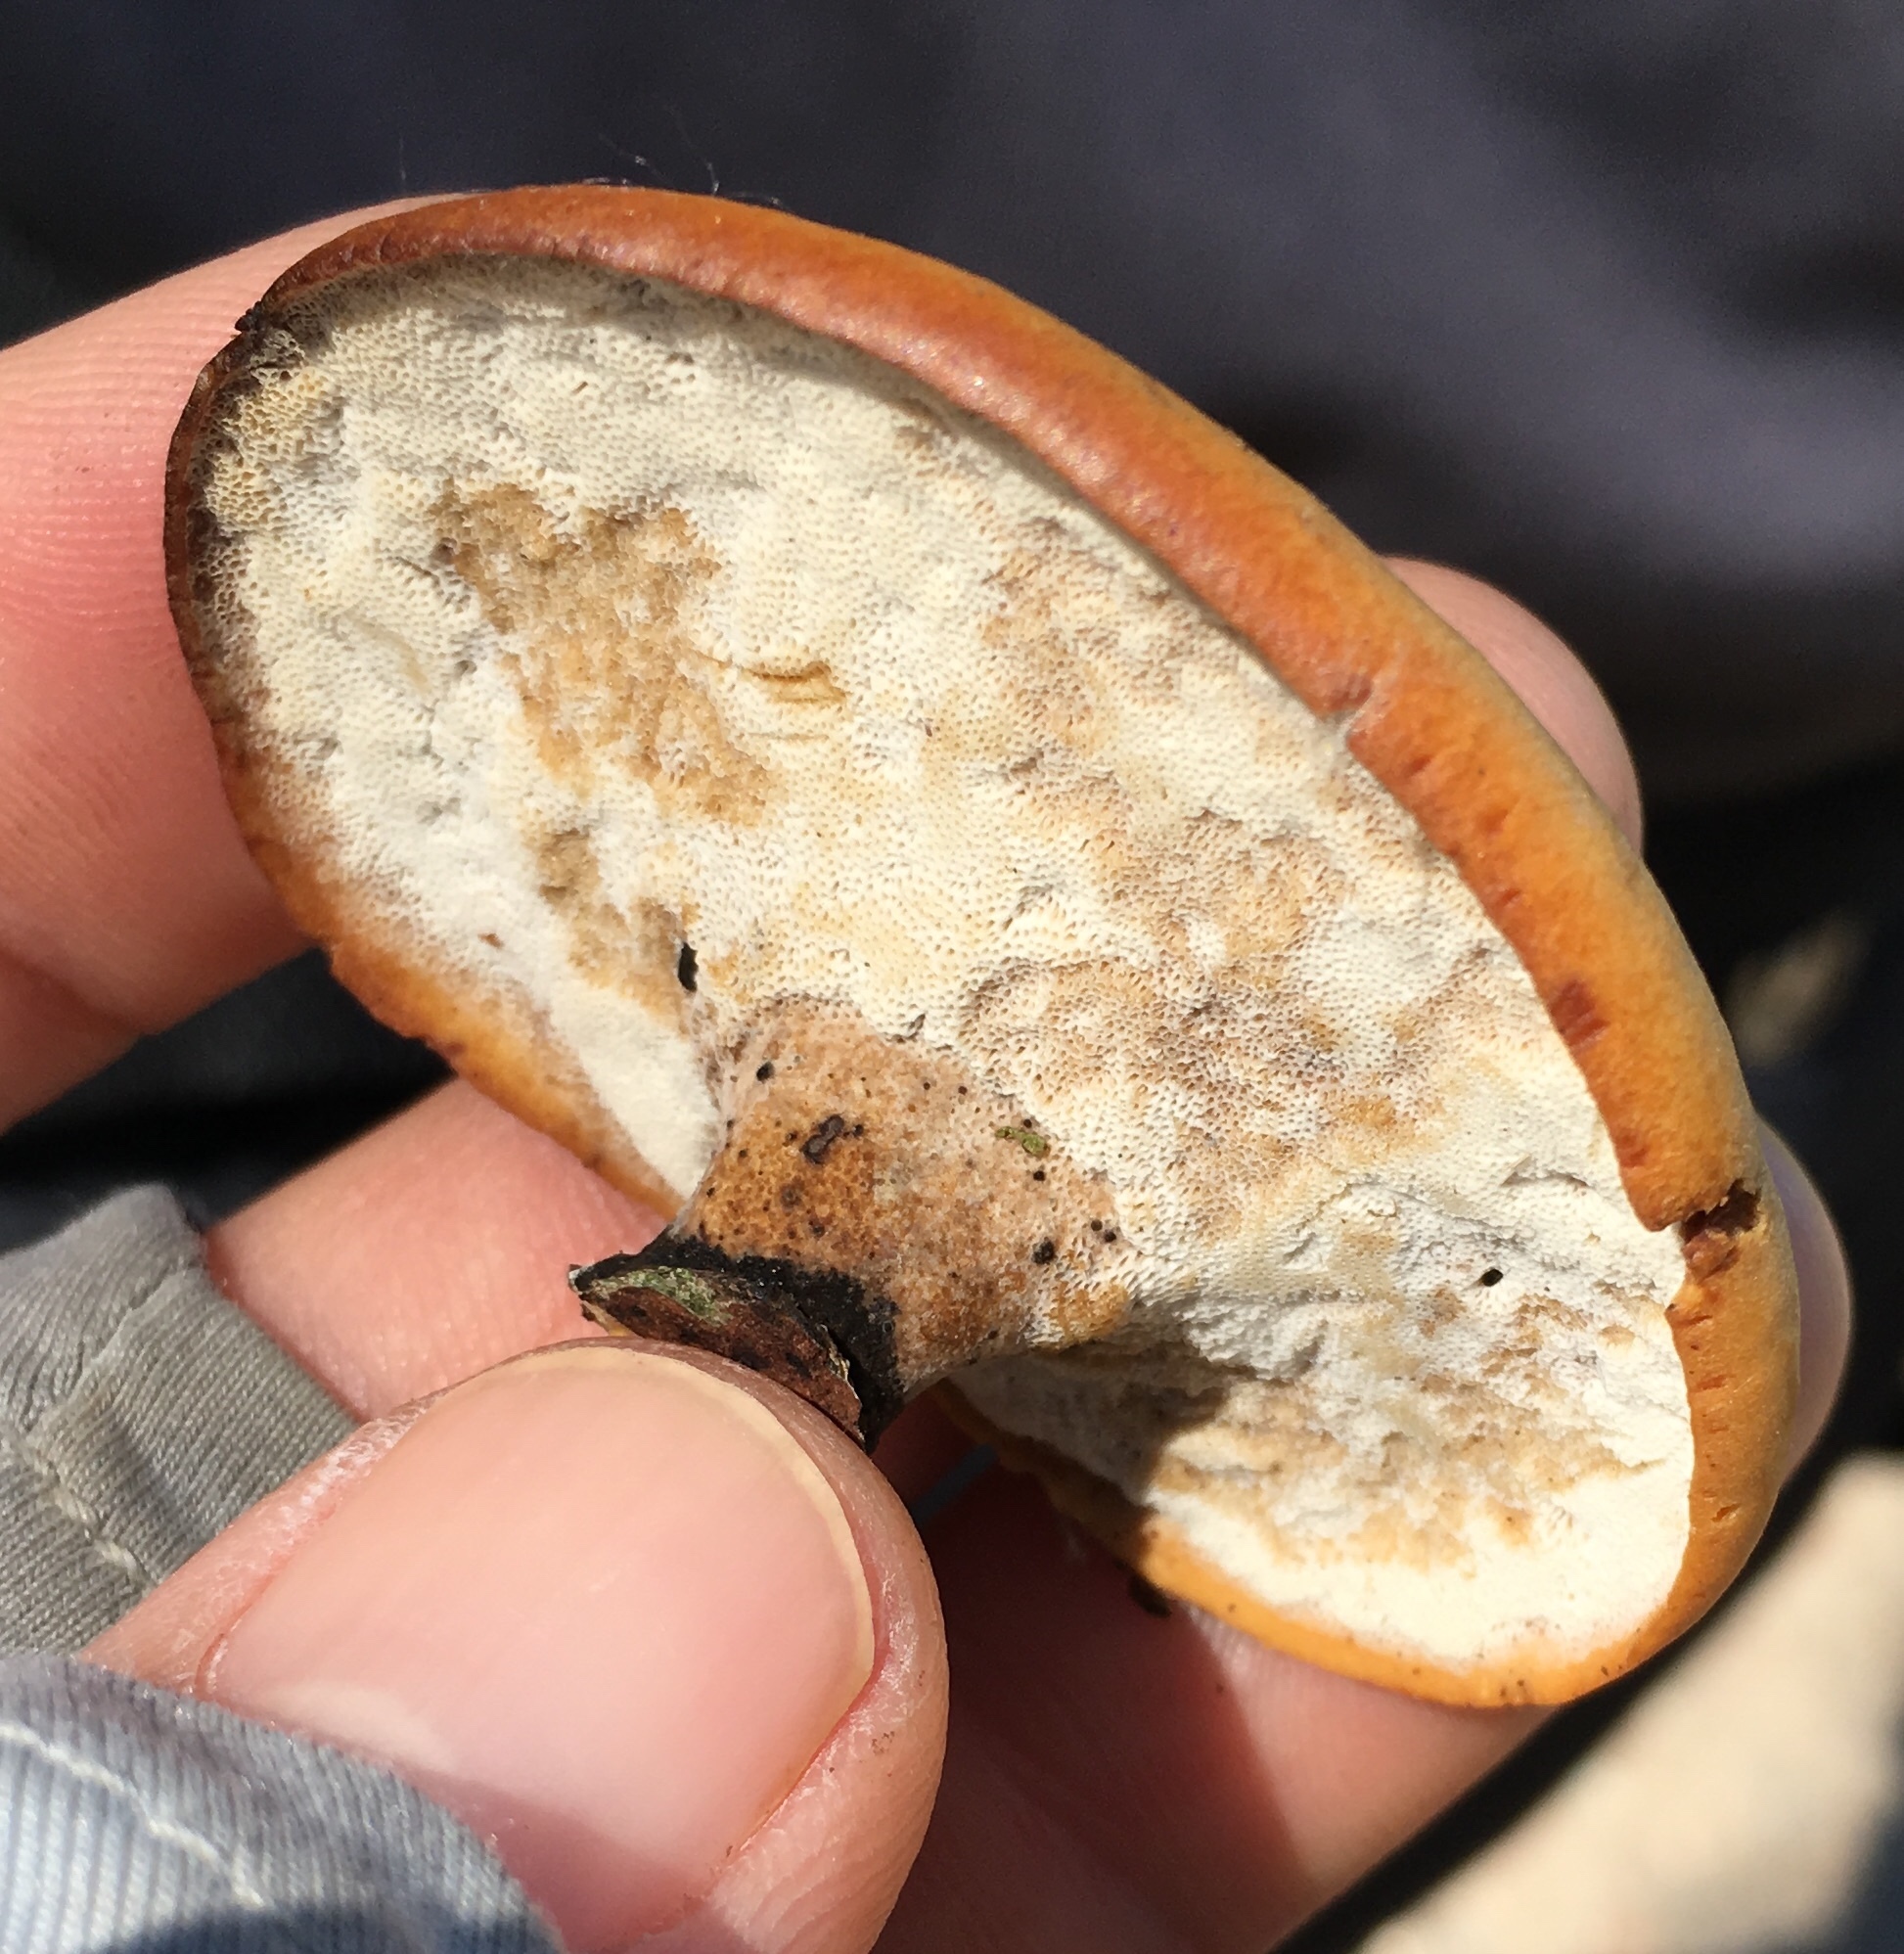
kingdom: Fungi
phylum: Basidiomycota
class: Agaricomycetes
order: Polyporales
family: Polyporaceae
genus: Cerioporus
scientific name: Cerioporus leptocephalus
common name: Blackfoot polypore
